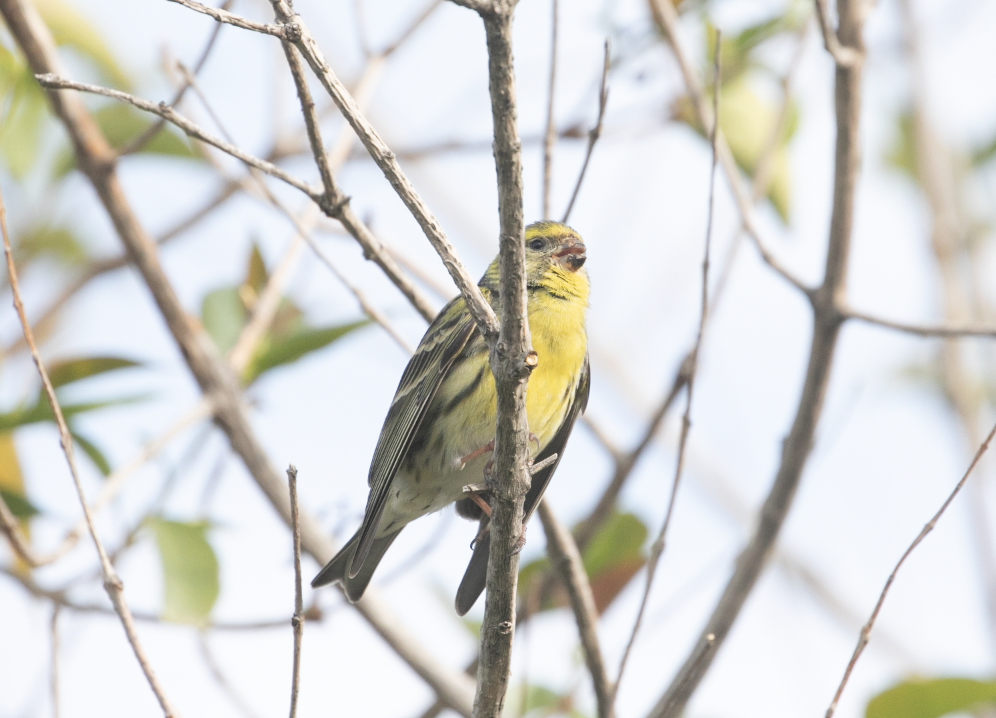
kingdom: Animalia
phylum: Chordata
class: Aves
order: Passeriformes
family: Fringillidae
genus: Serinus
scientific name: Serinus serinus
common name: European serin
